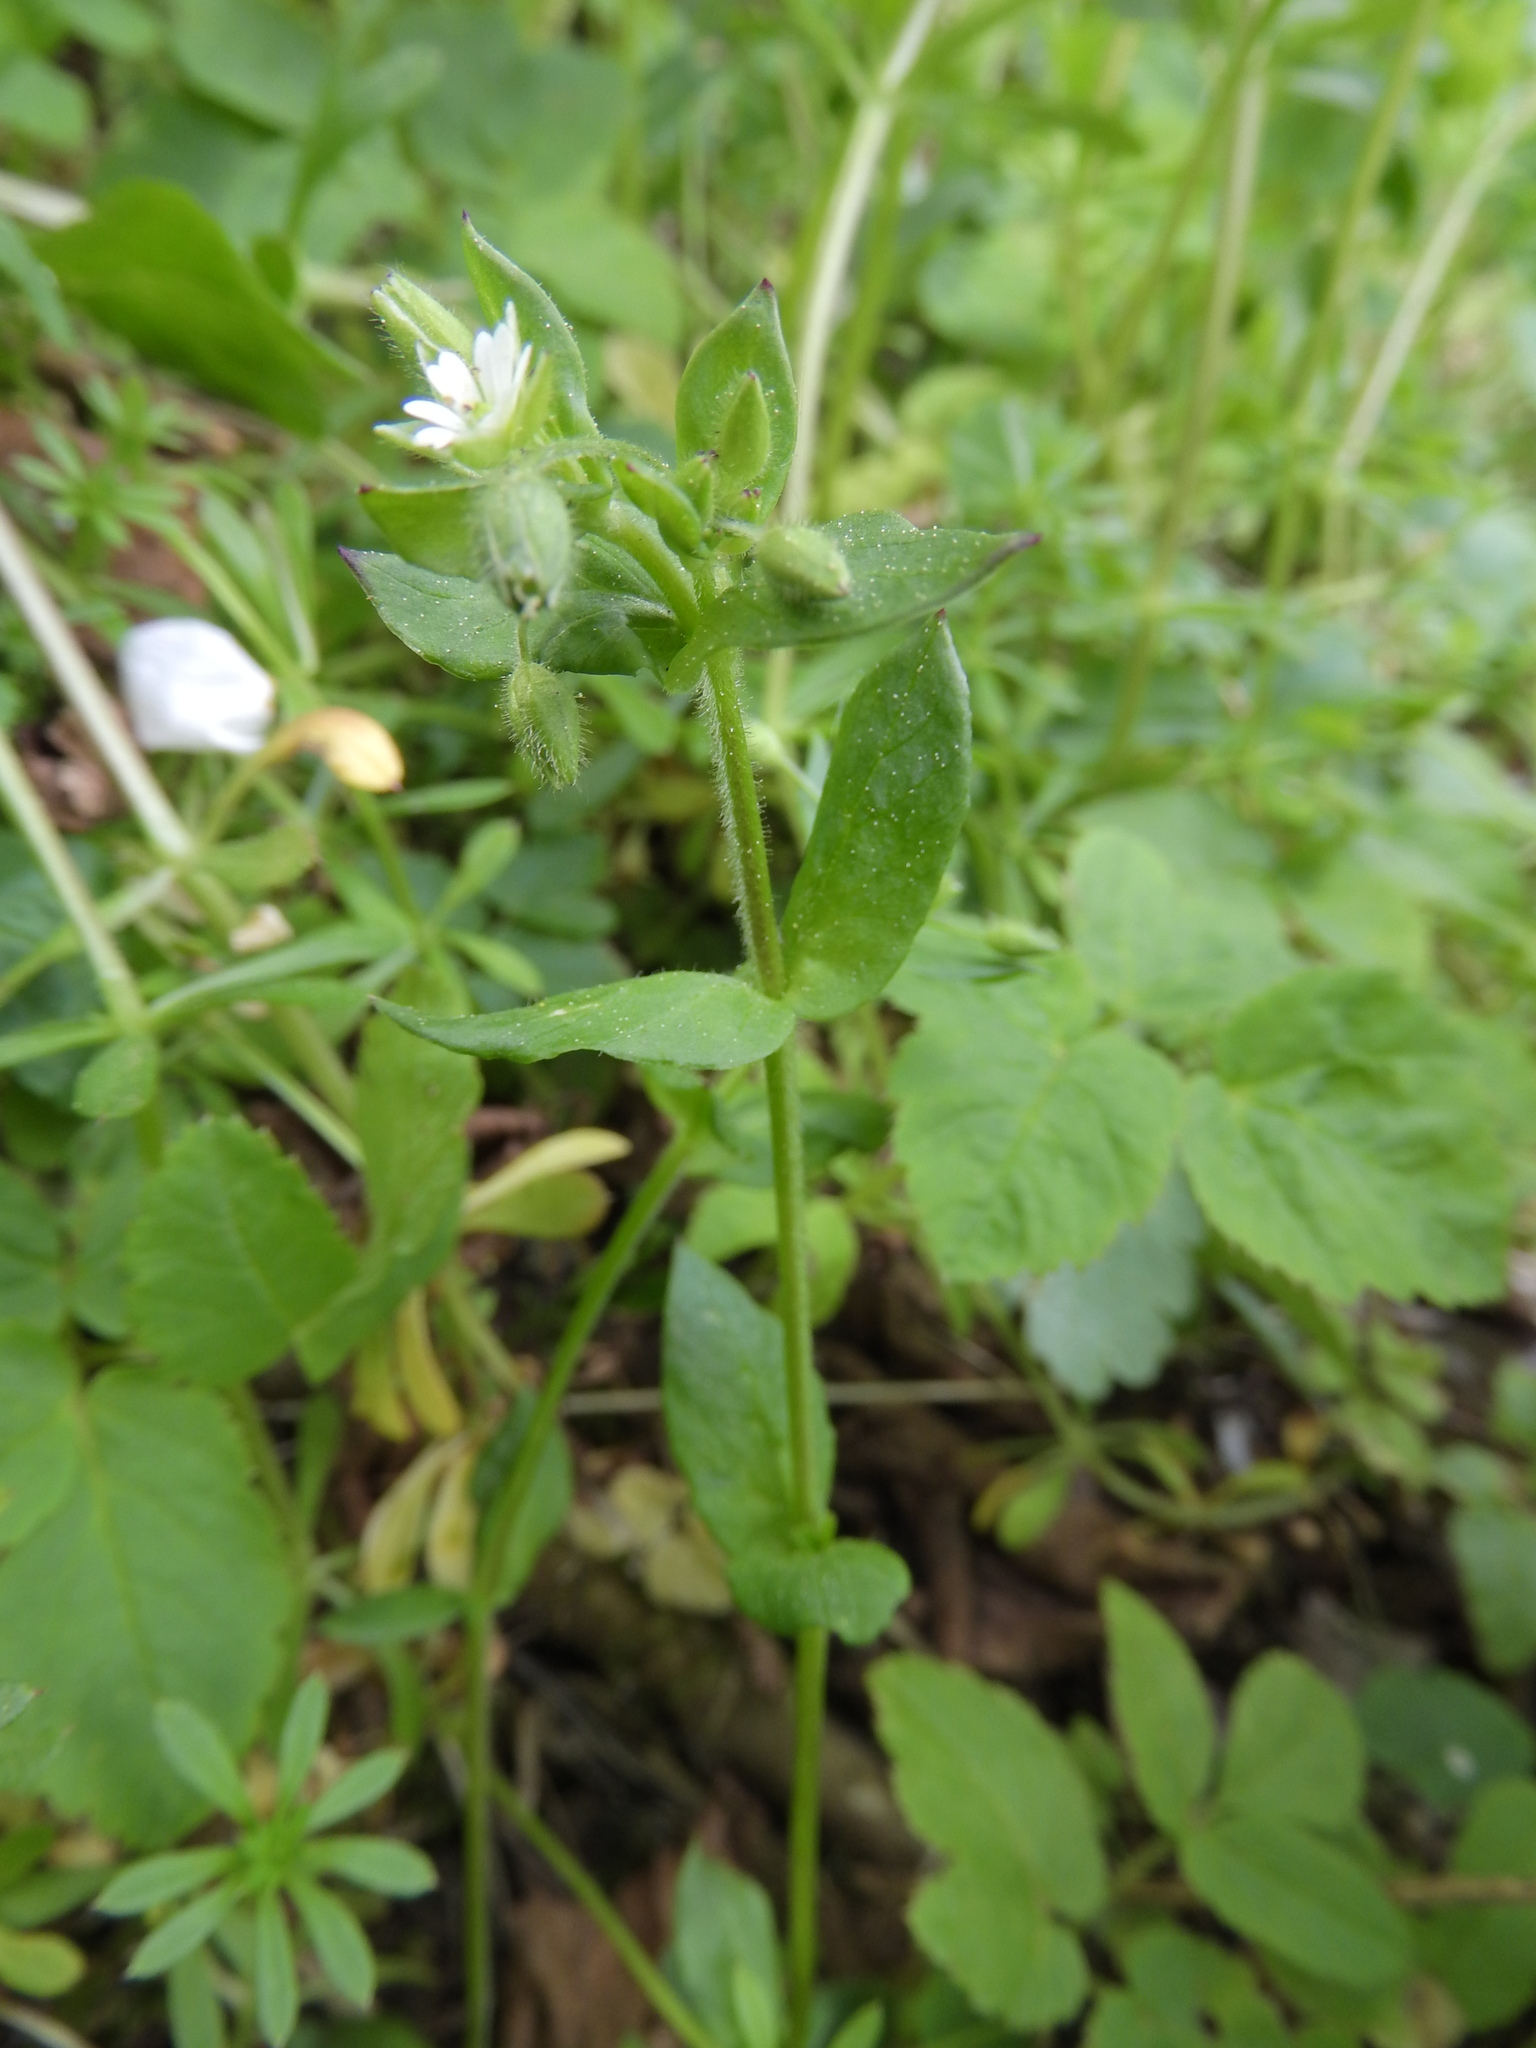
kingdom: Plantae
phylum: Tracheophyta
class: Magnoliopsida
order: Caryophyllales
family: Caryophyllaceae
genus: Stellaria
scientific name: Stellaria media
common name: Common chickweed
